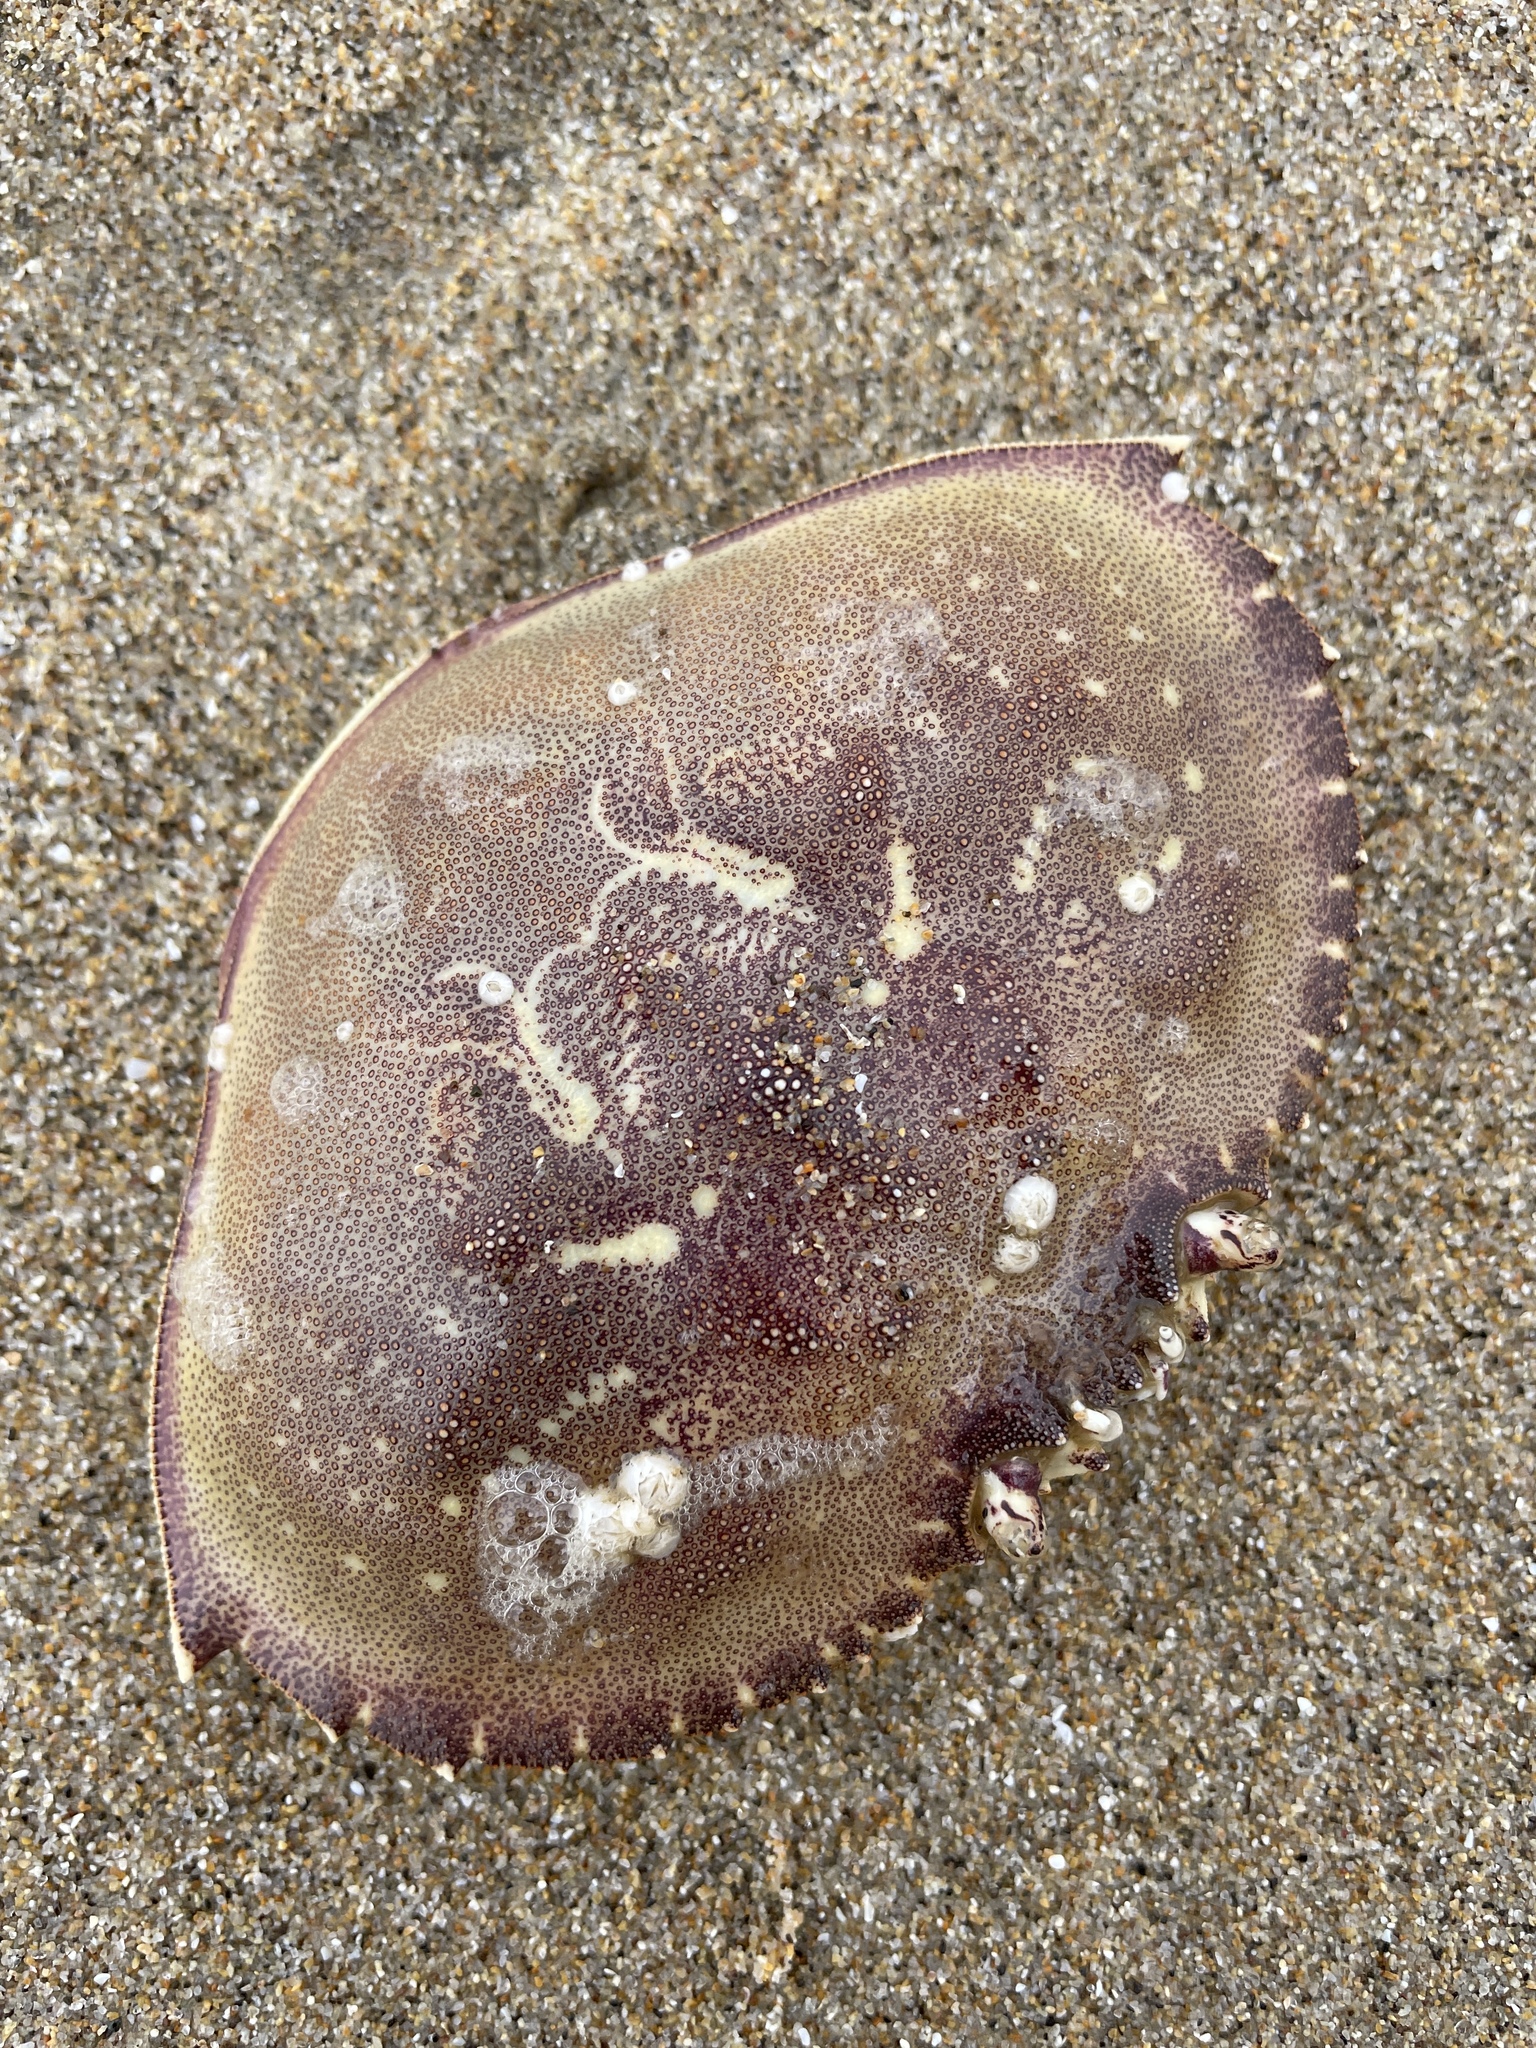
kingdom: Animalia
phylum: Arthropoda
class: Malacostraca
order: Decapoda
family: Cancridae
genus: Metacarcinus
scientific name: Metacarcinus magister
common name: Californian crab
